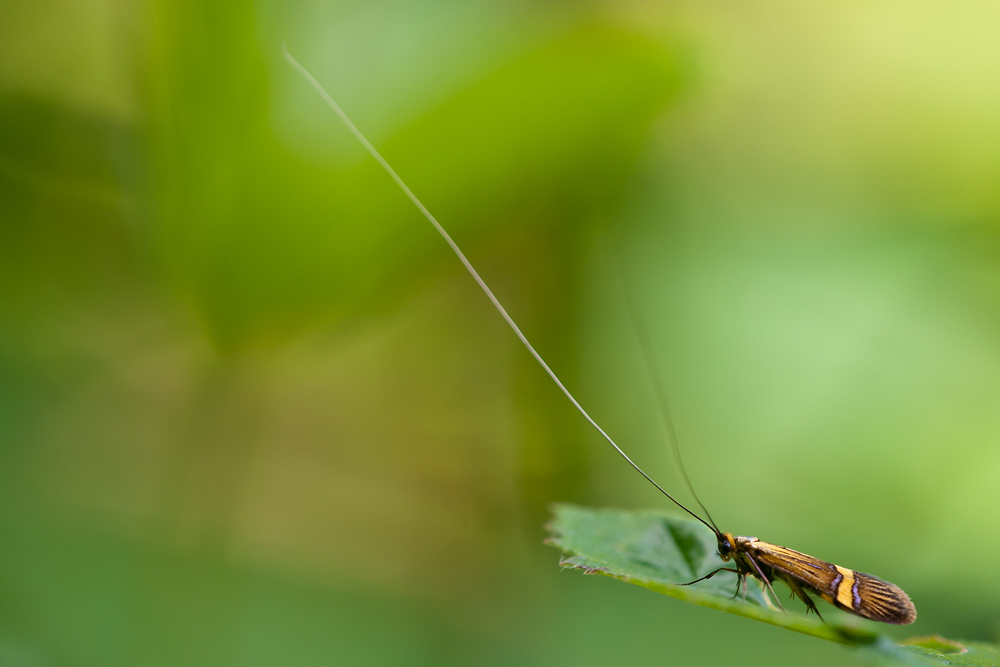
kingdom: Animalia
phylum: Arthropoda
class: Insecta
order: Lepidoptera
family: Adelidae
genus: Nemophora
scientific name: Nemophora degeerella
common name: Yellow-barred long-horn
